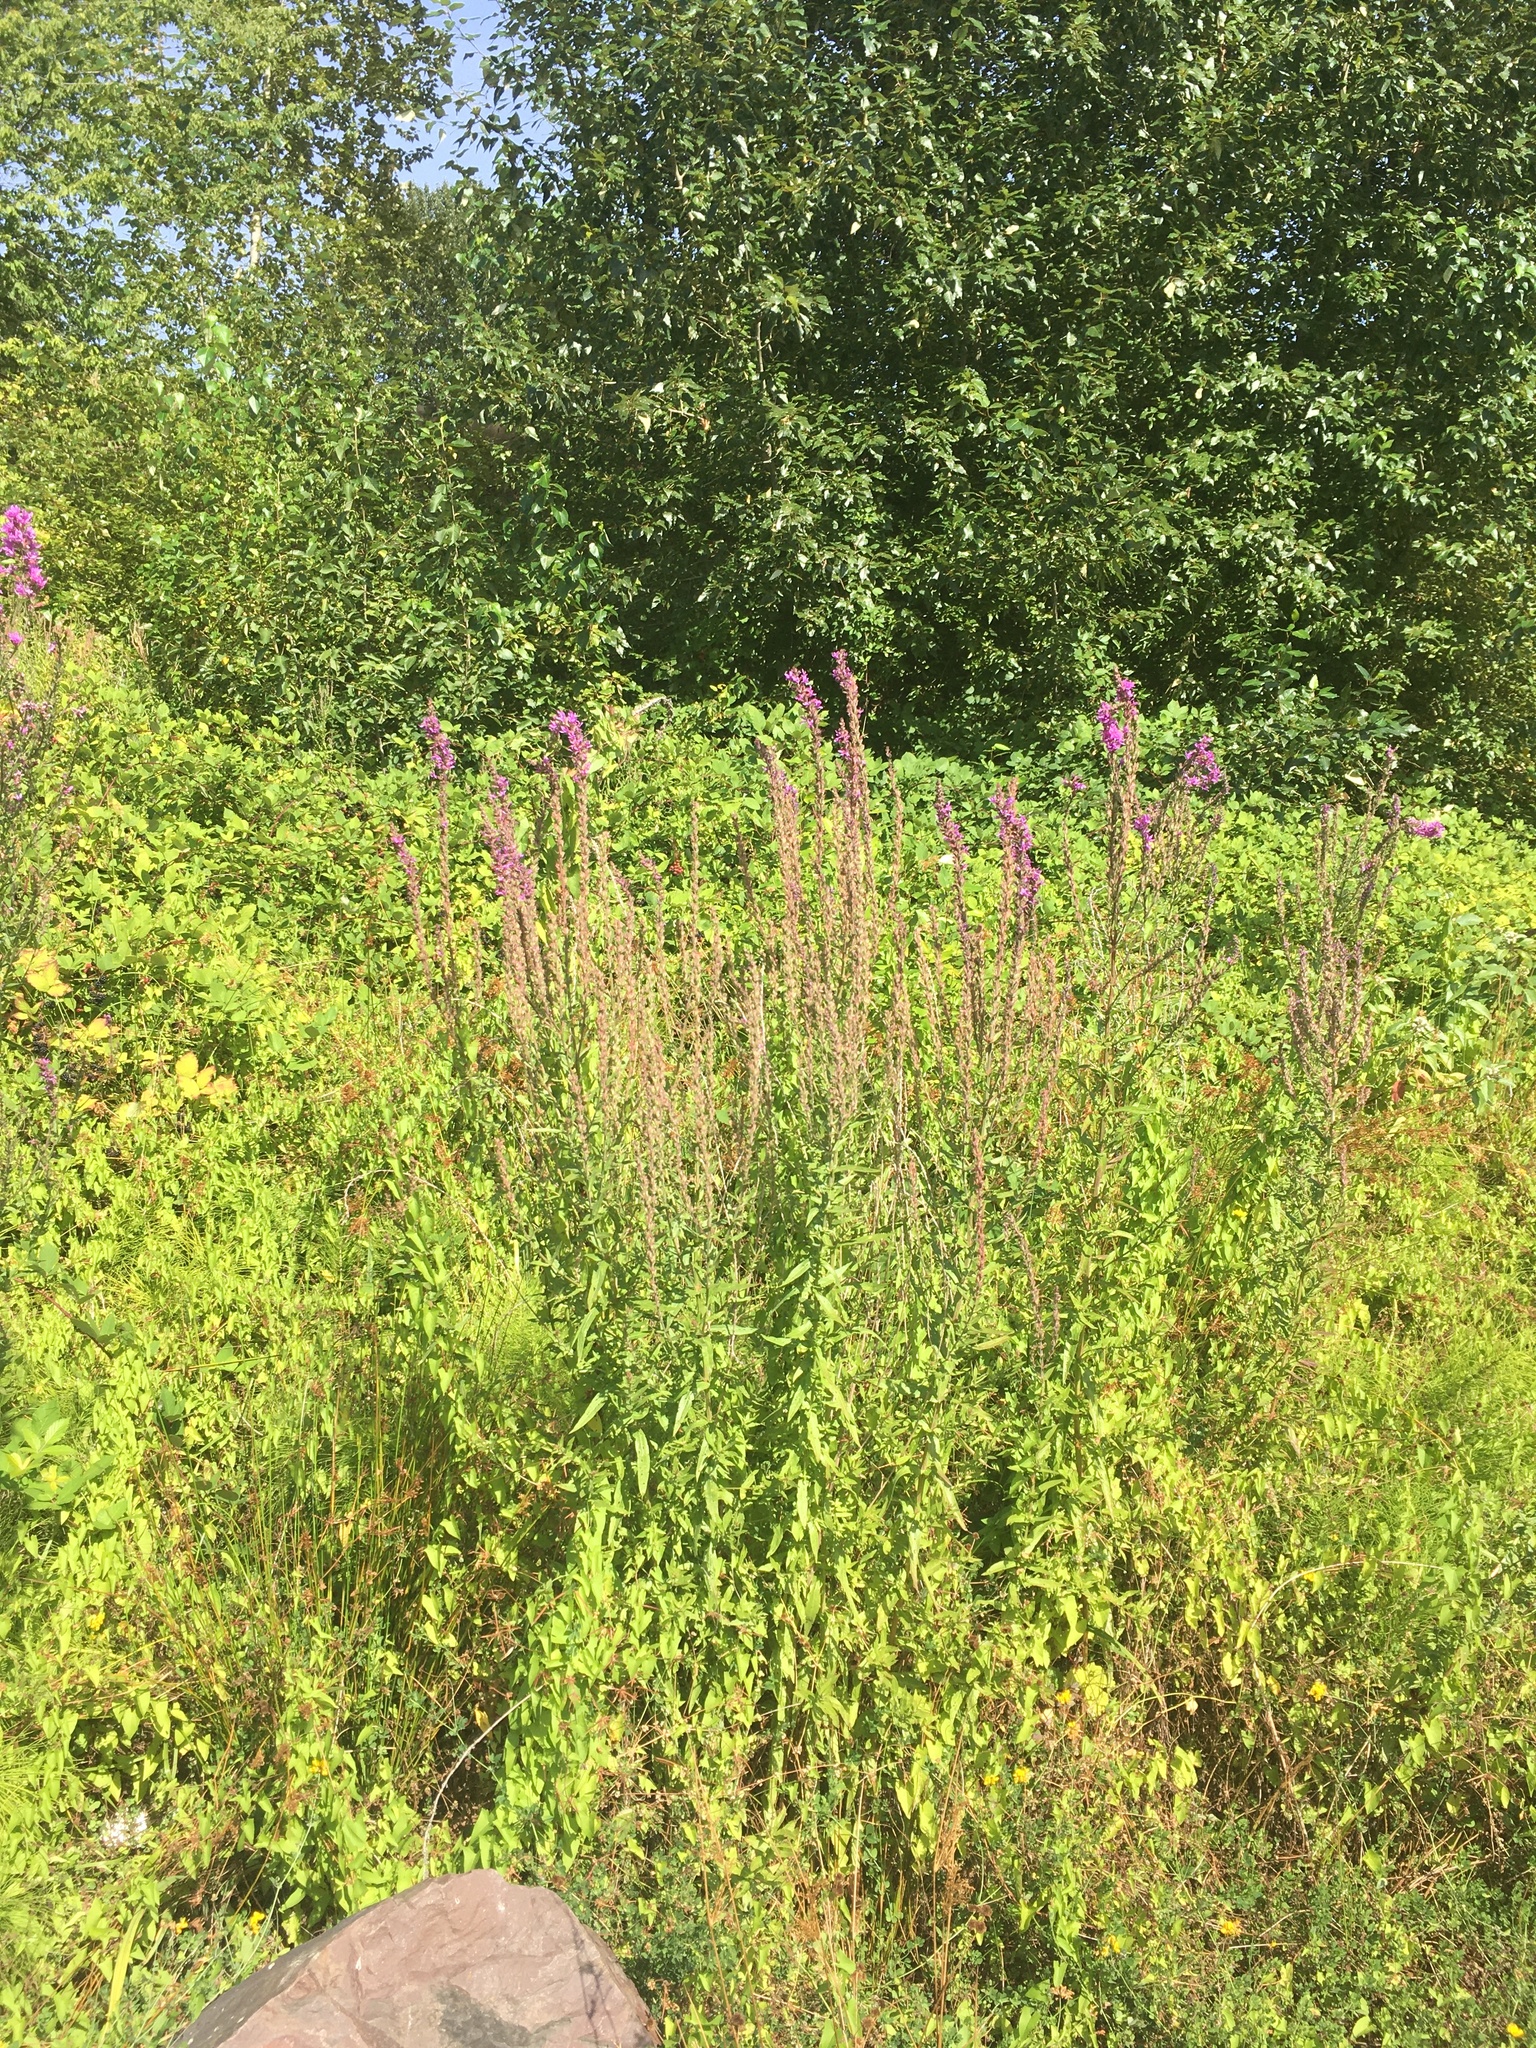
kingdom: Plantae
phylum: Tracheophyta
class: Magnoliopsida
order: Myrtales
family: Lythraceae
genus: Lythrum
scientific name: Lythrum salicaria
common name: Purple loosestrife
